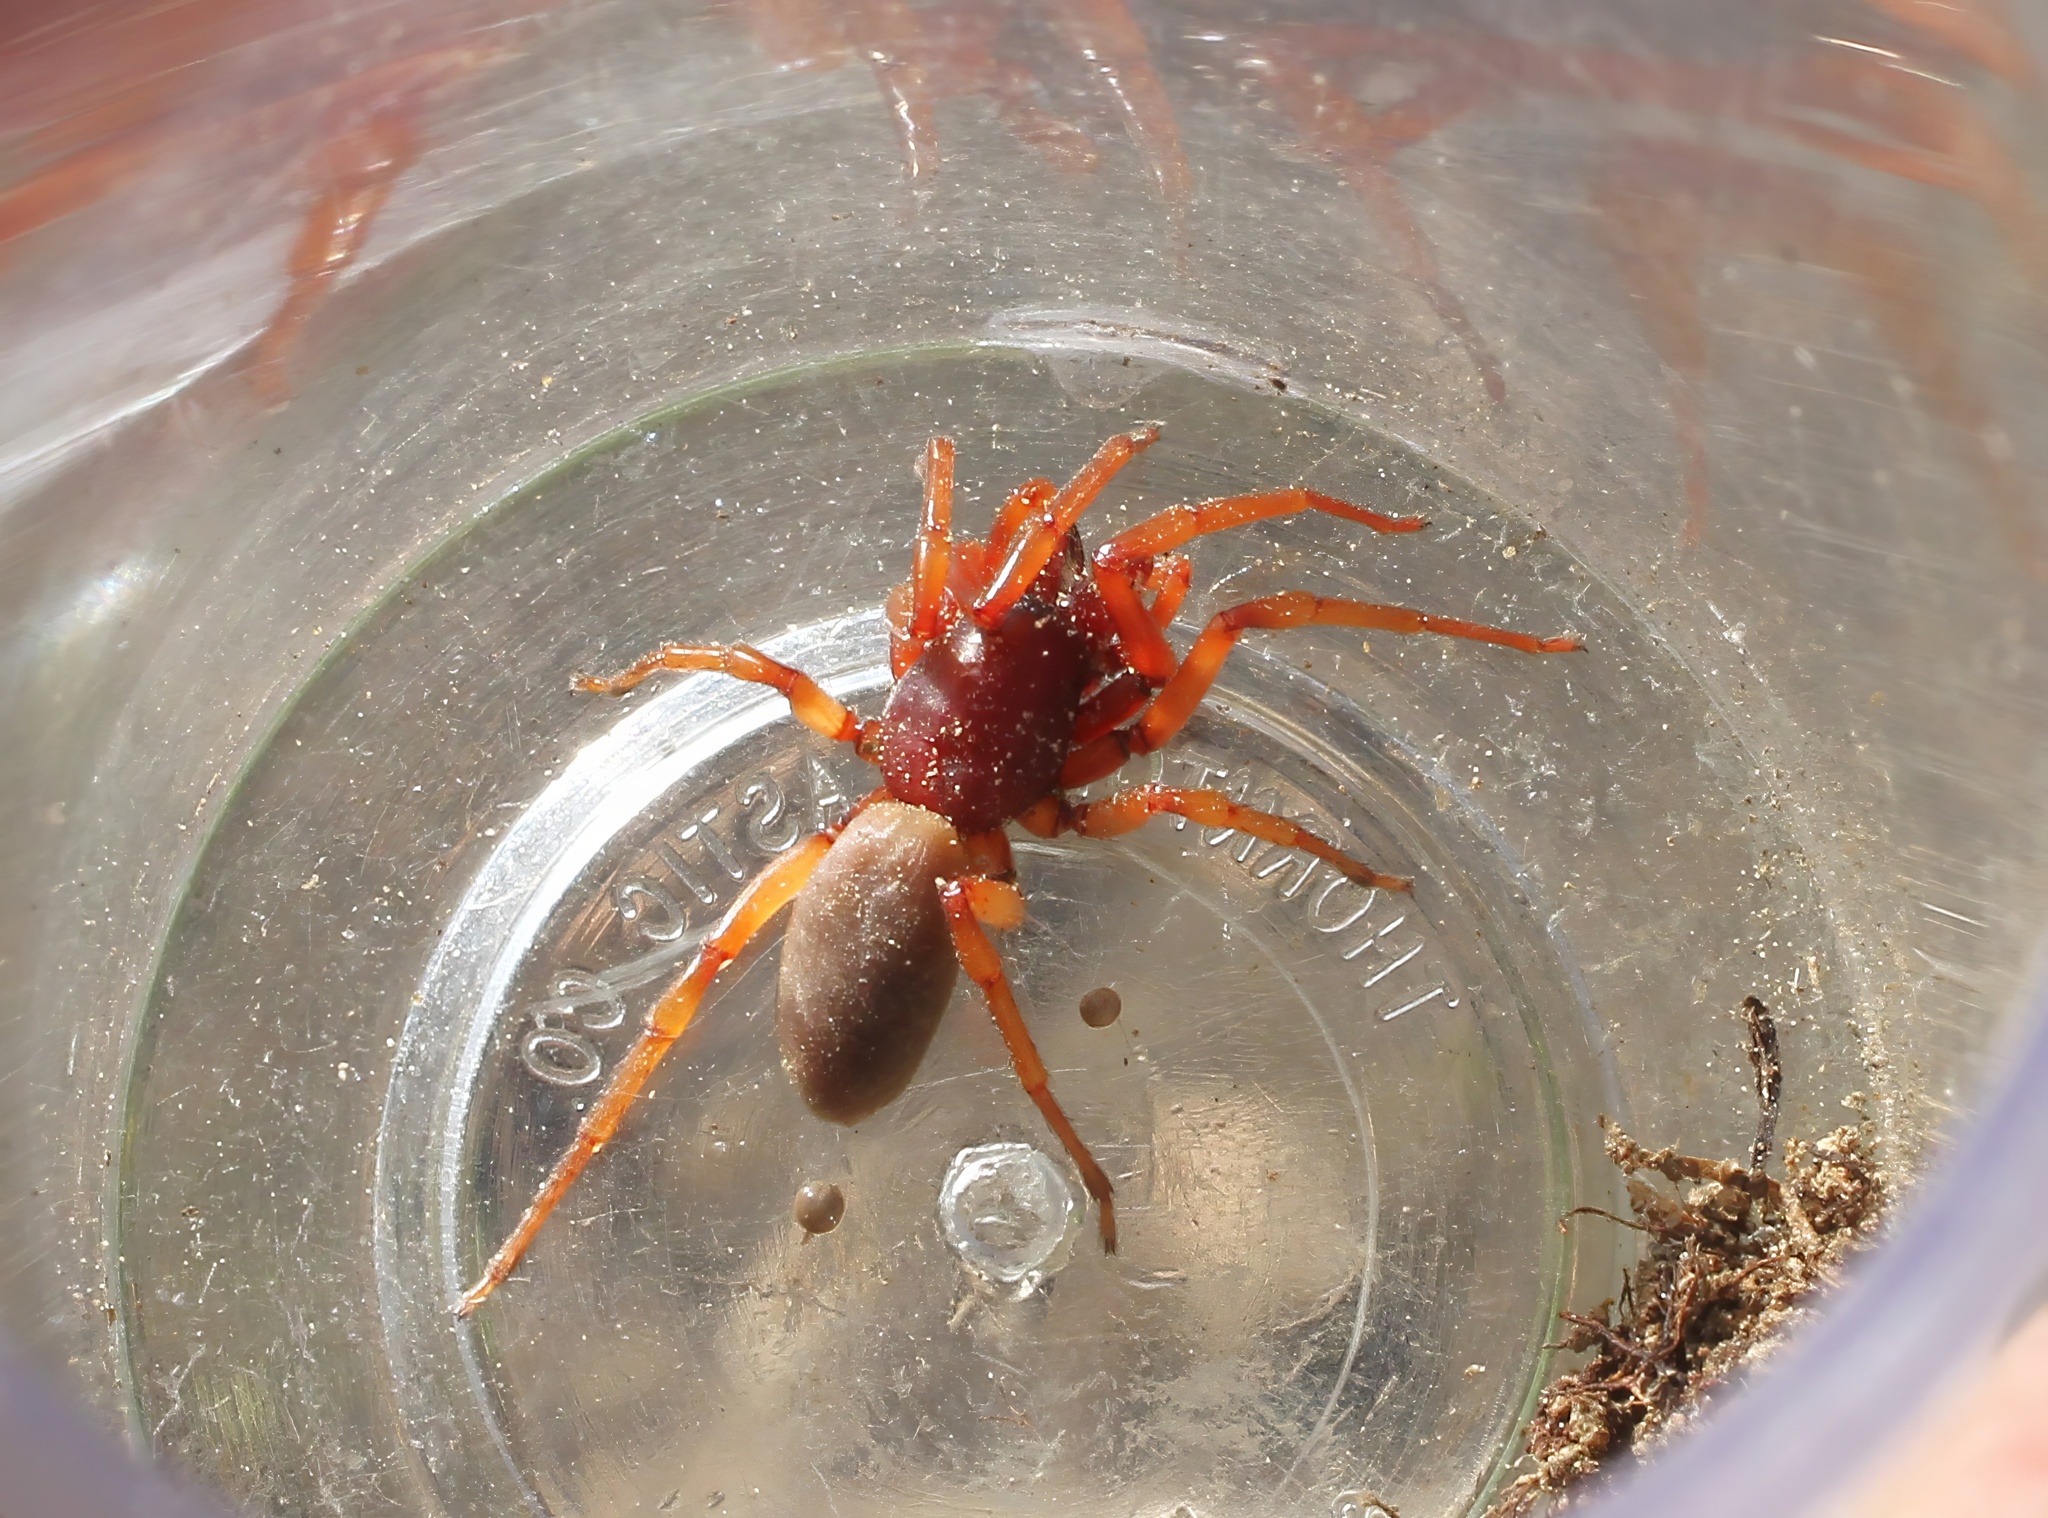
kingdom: Animalia
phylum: Arthropoda
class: Arachnida
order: Araneae
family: Dysderidae
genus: Dysdera
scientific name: Dysdera crocata
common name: Woodlouse spider
